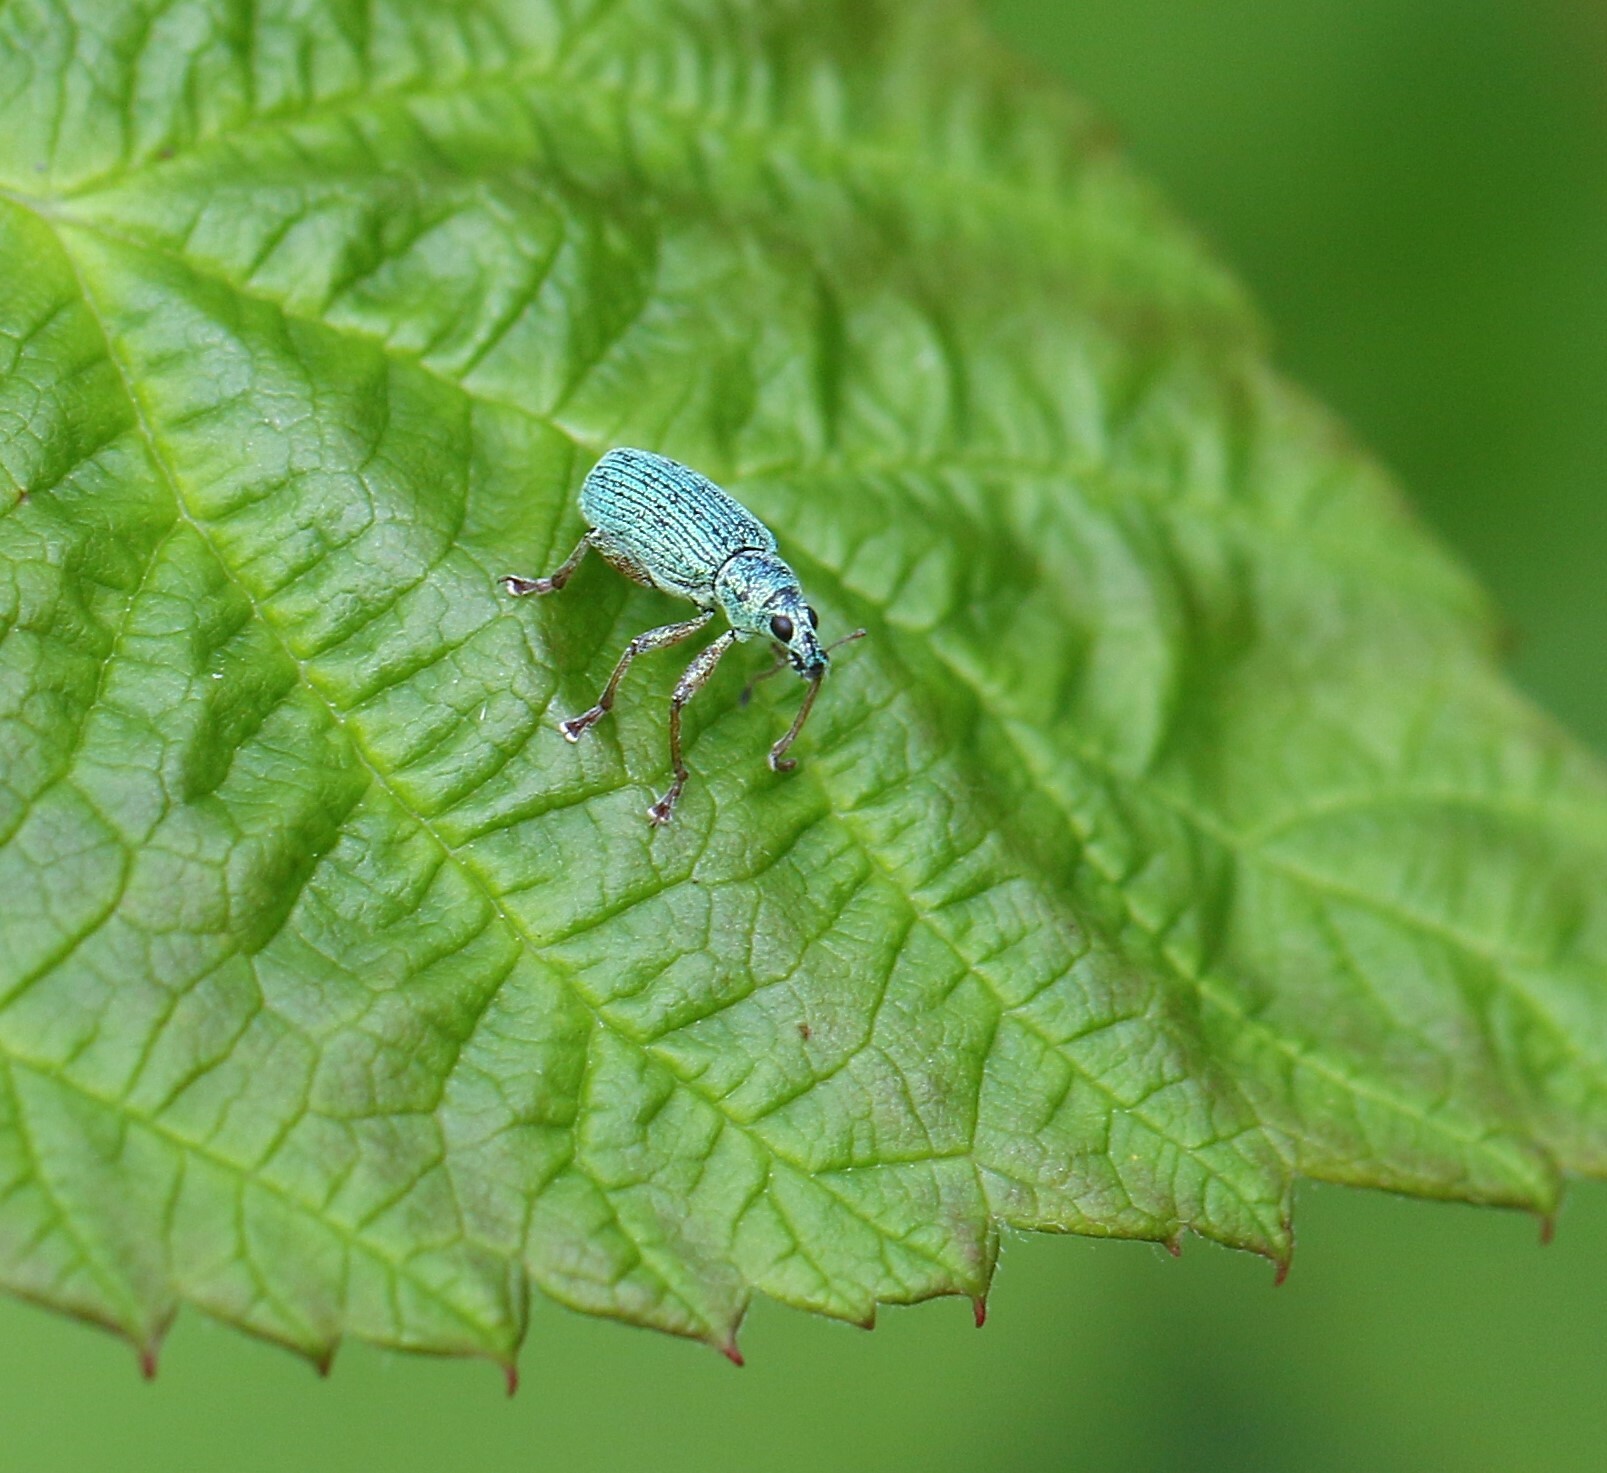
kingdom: Animalia
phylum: Arthropoda
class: Insecta
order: Coleoptera
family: Curculionidae
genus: Polydrusus
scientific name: Polydrusus formosus
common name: Weevil
